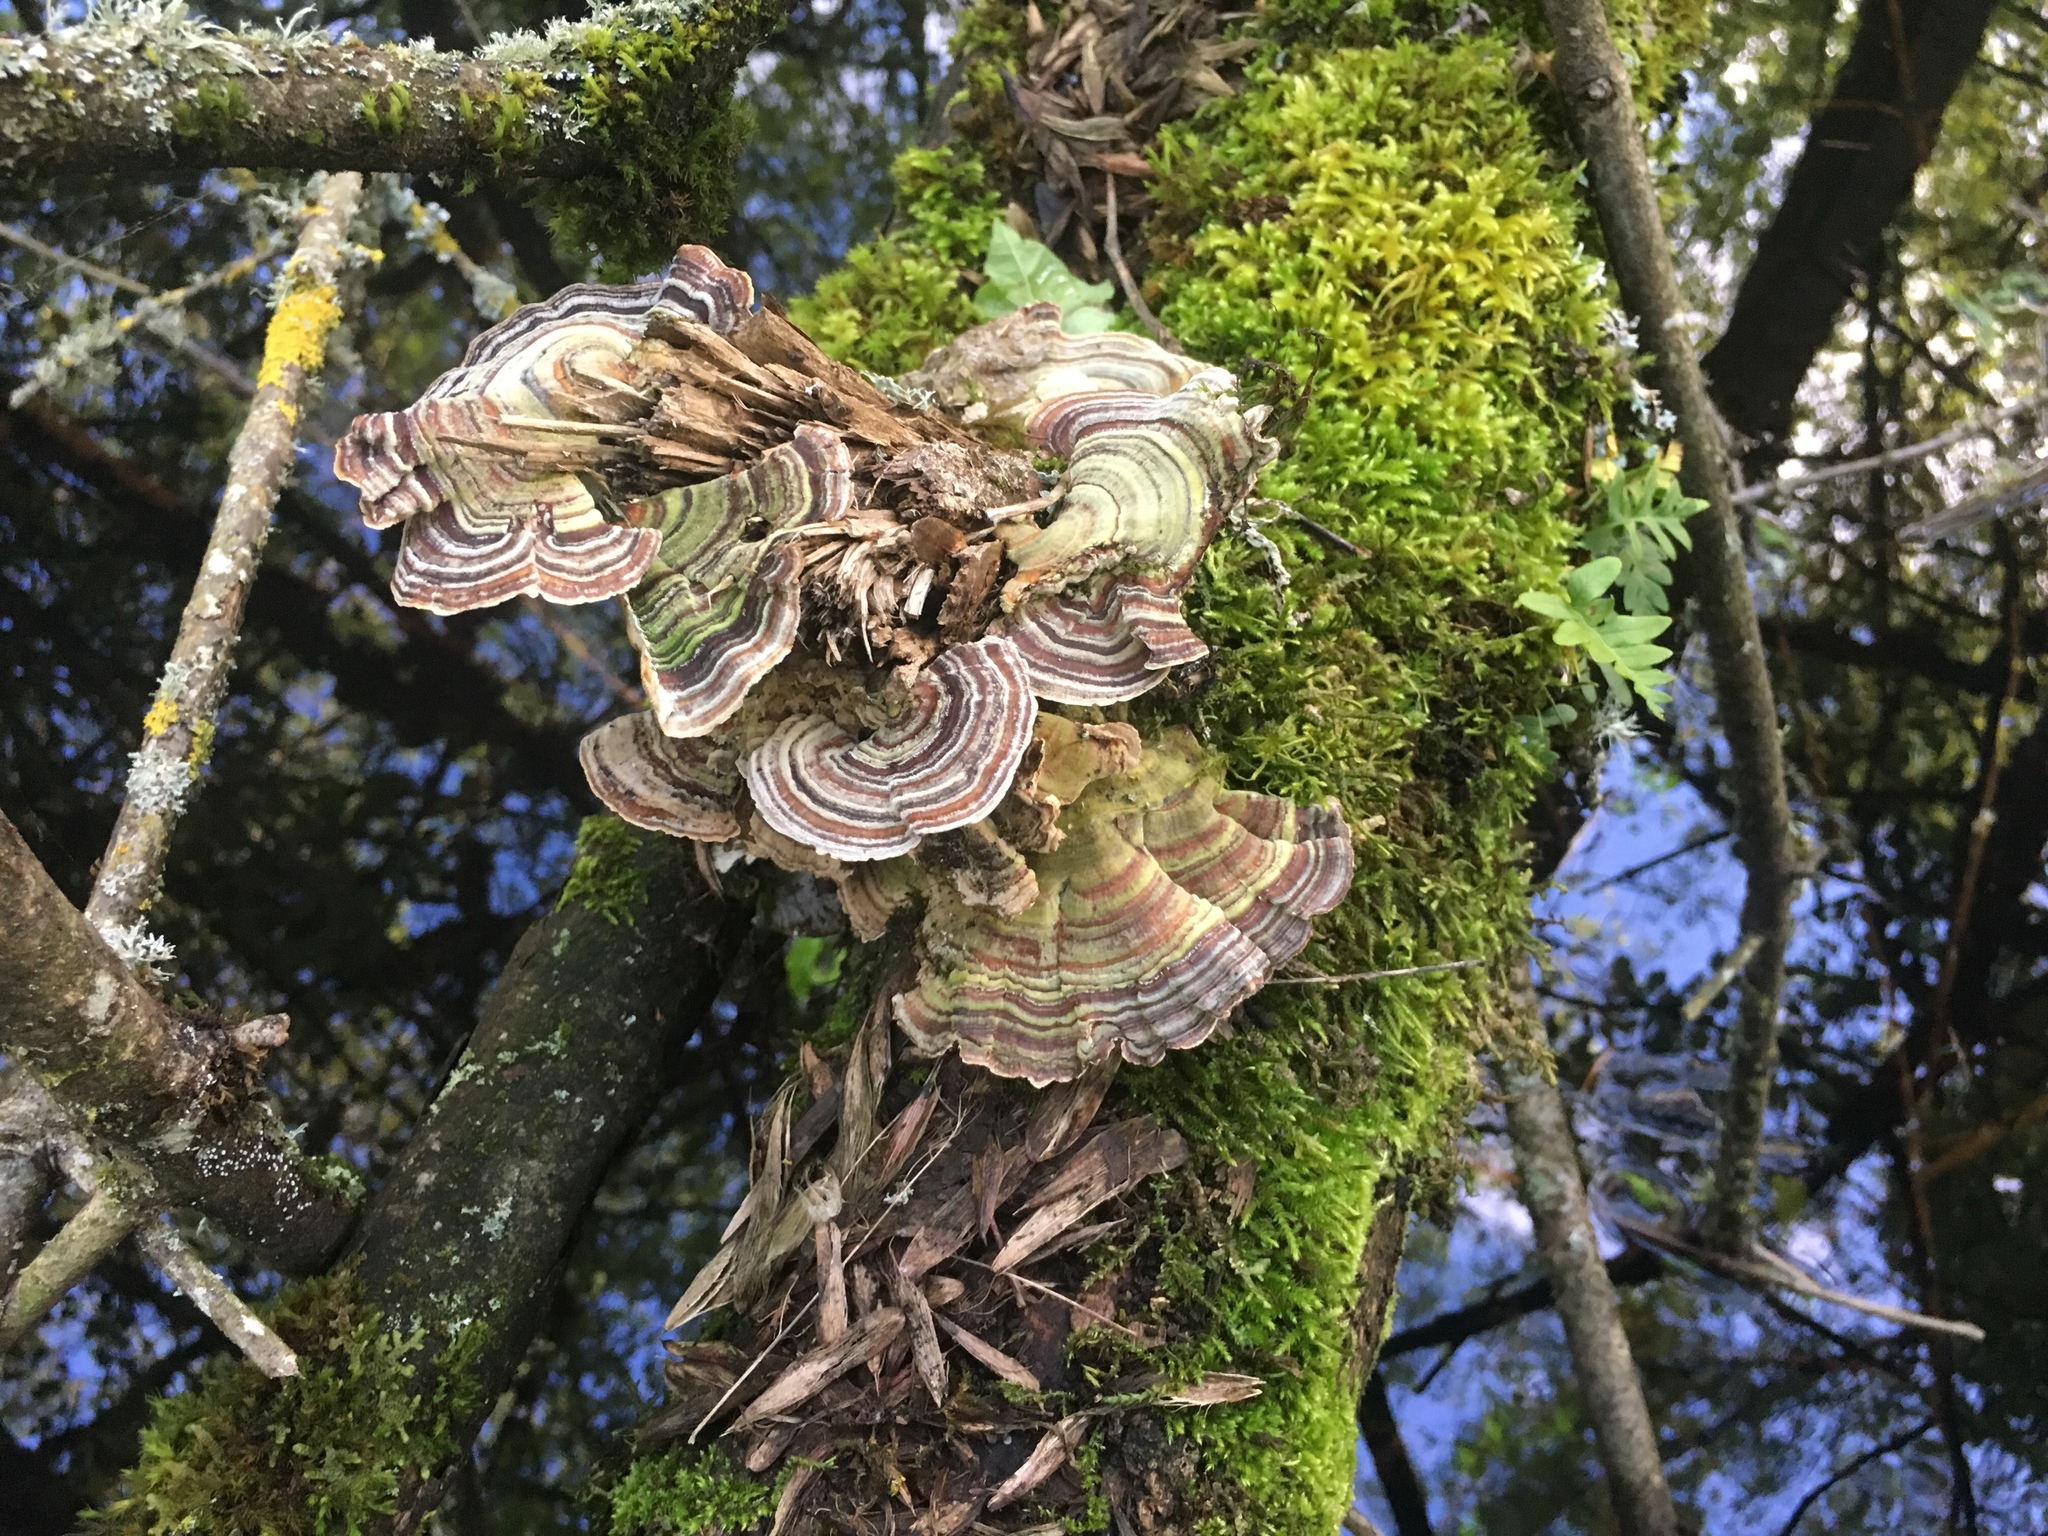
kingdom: Fungi
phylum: Basidiomycota
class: Agaricomycetes
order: Polyporales
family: Polyporaceae
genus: Trametes
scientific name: Trametes versicolor
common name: Turkeytail
